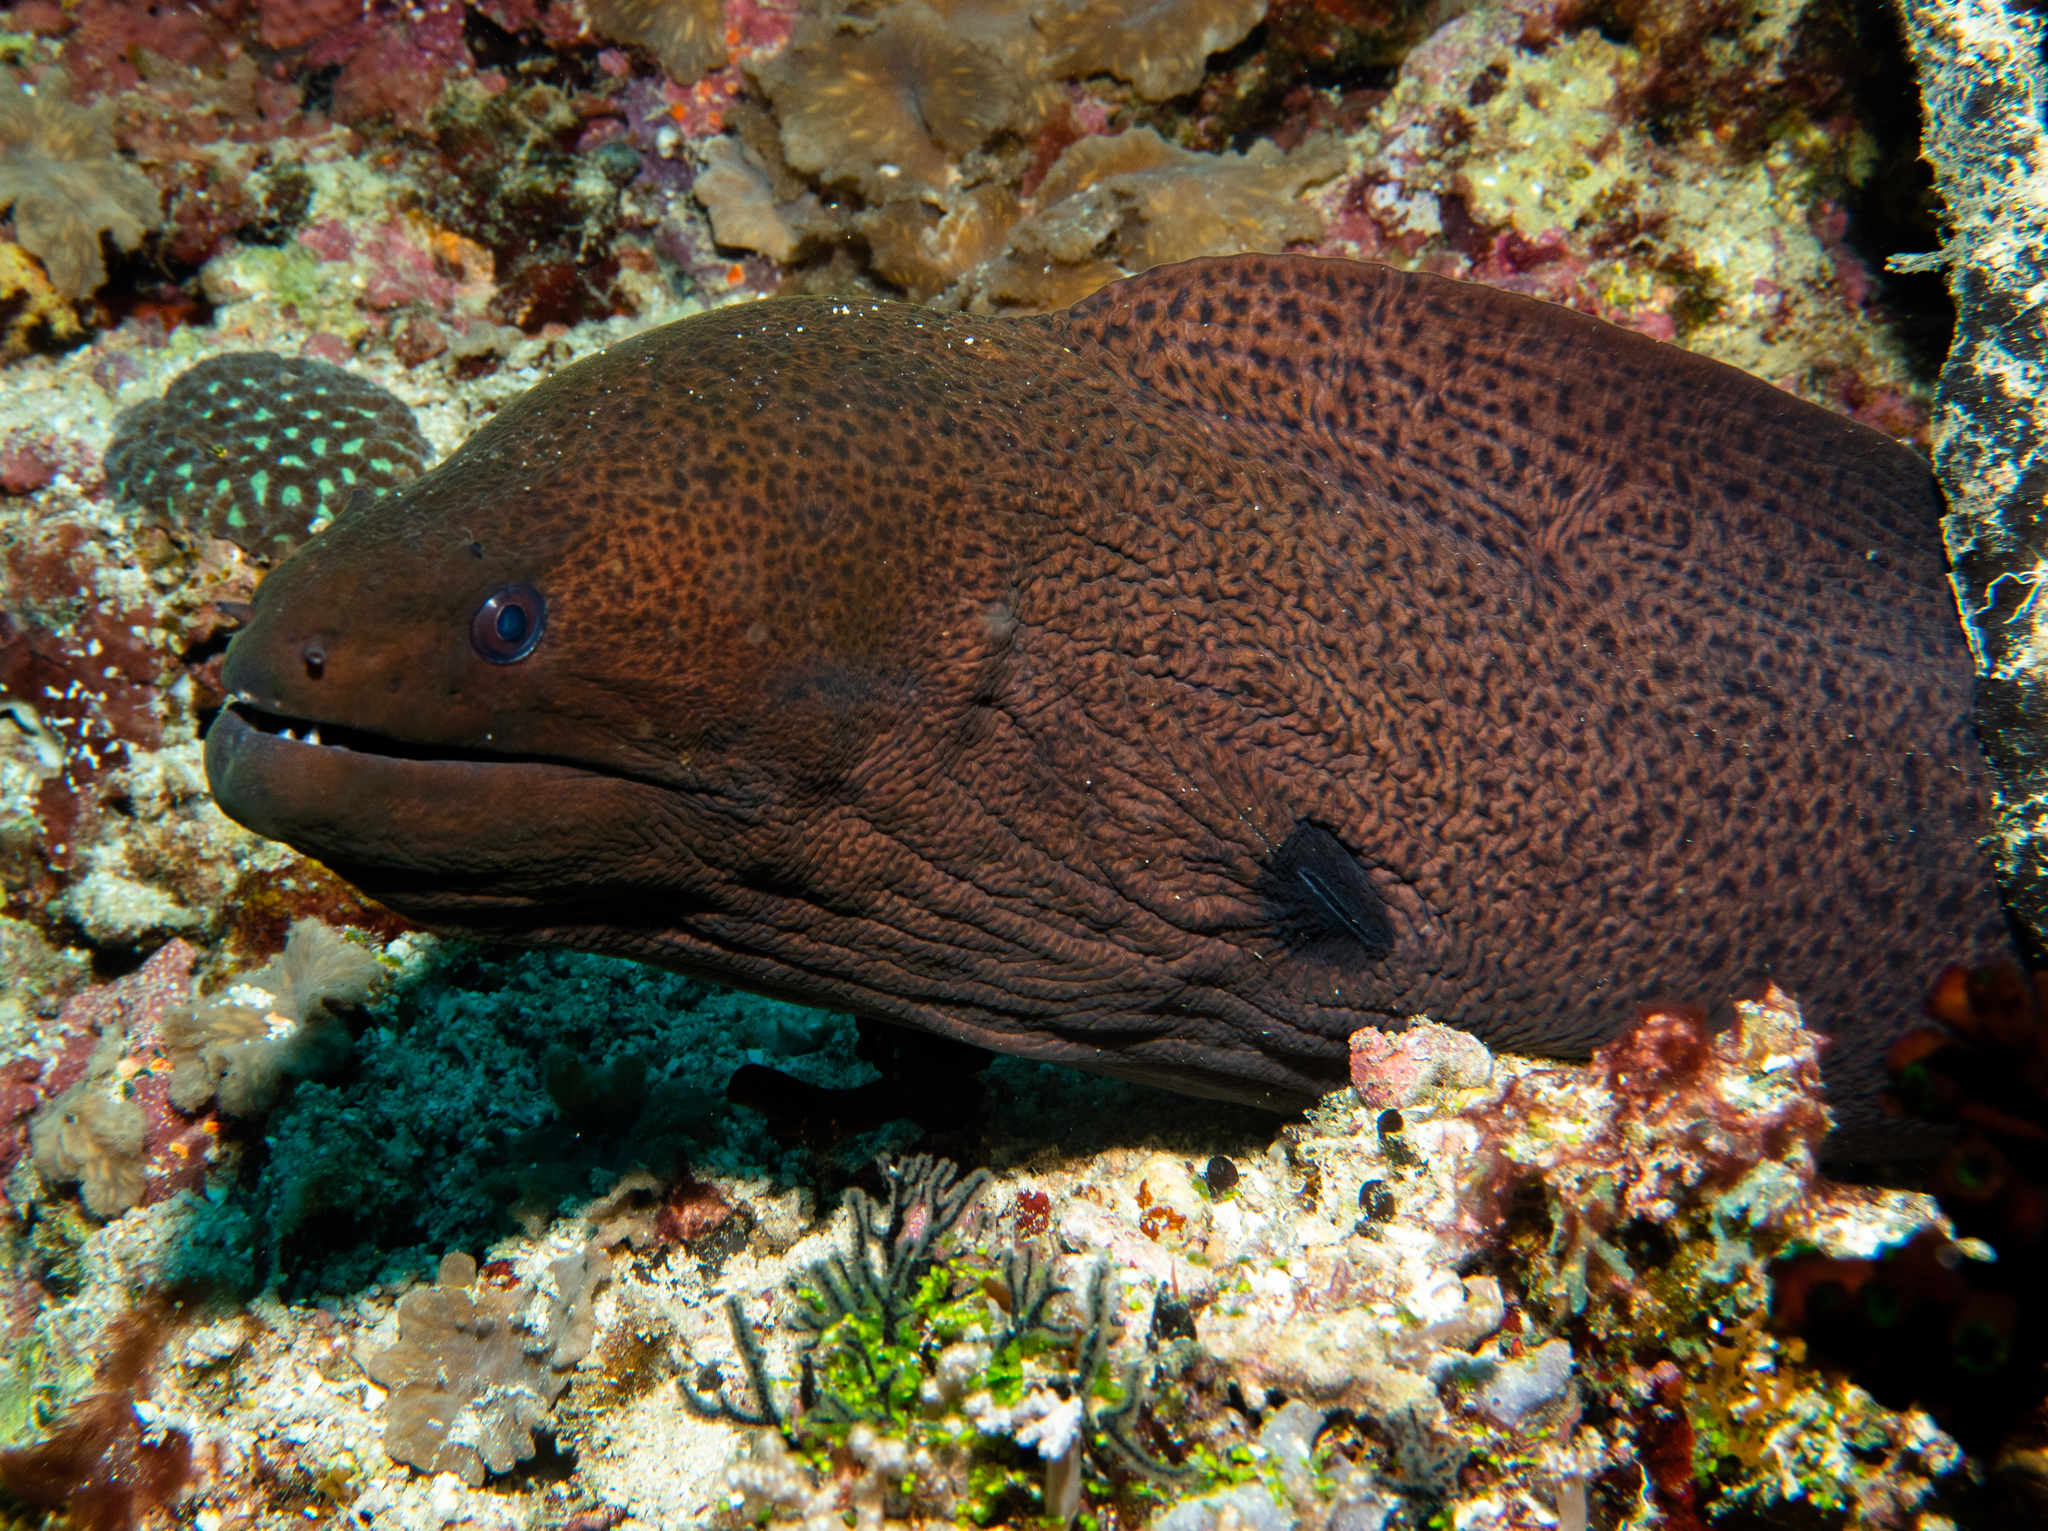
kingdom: Animalia
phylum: Chordata
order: Anguilliformes
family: Muraenidae
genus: Gymnothorax
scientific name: Gymnothorax javanicus
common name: Giant moray
